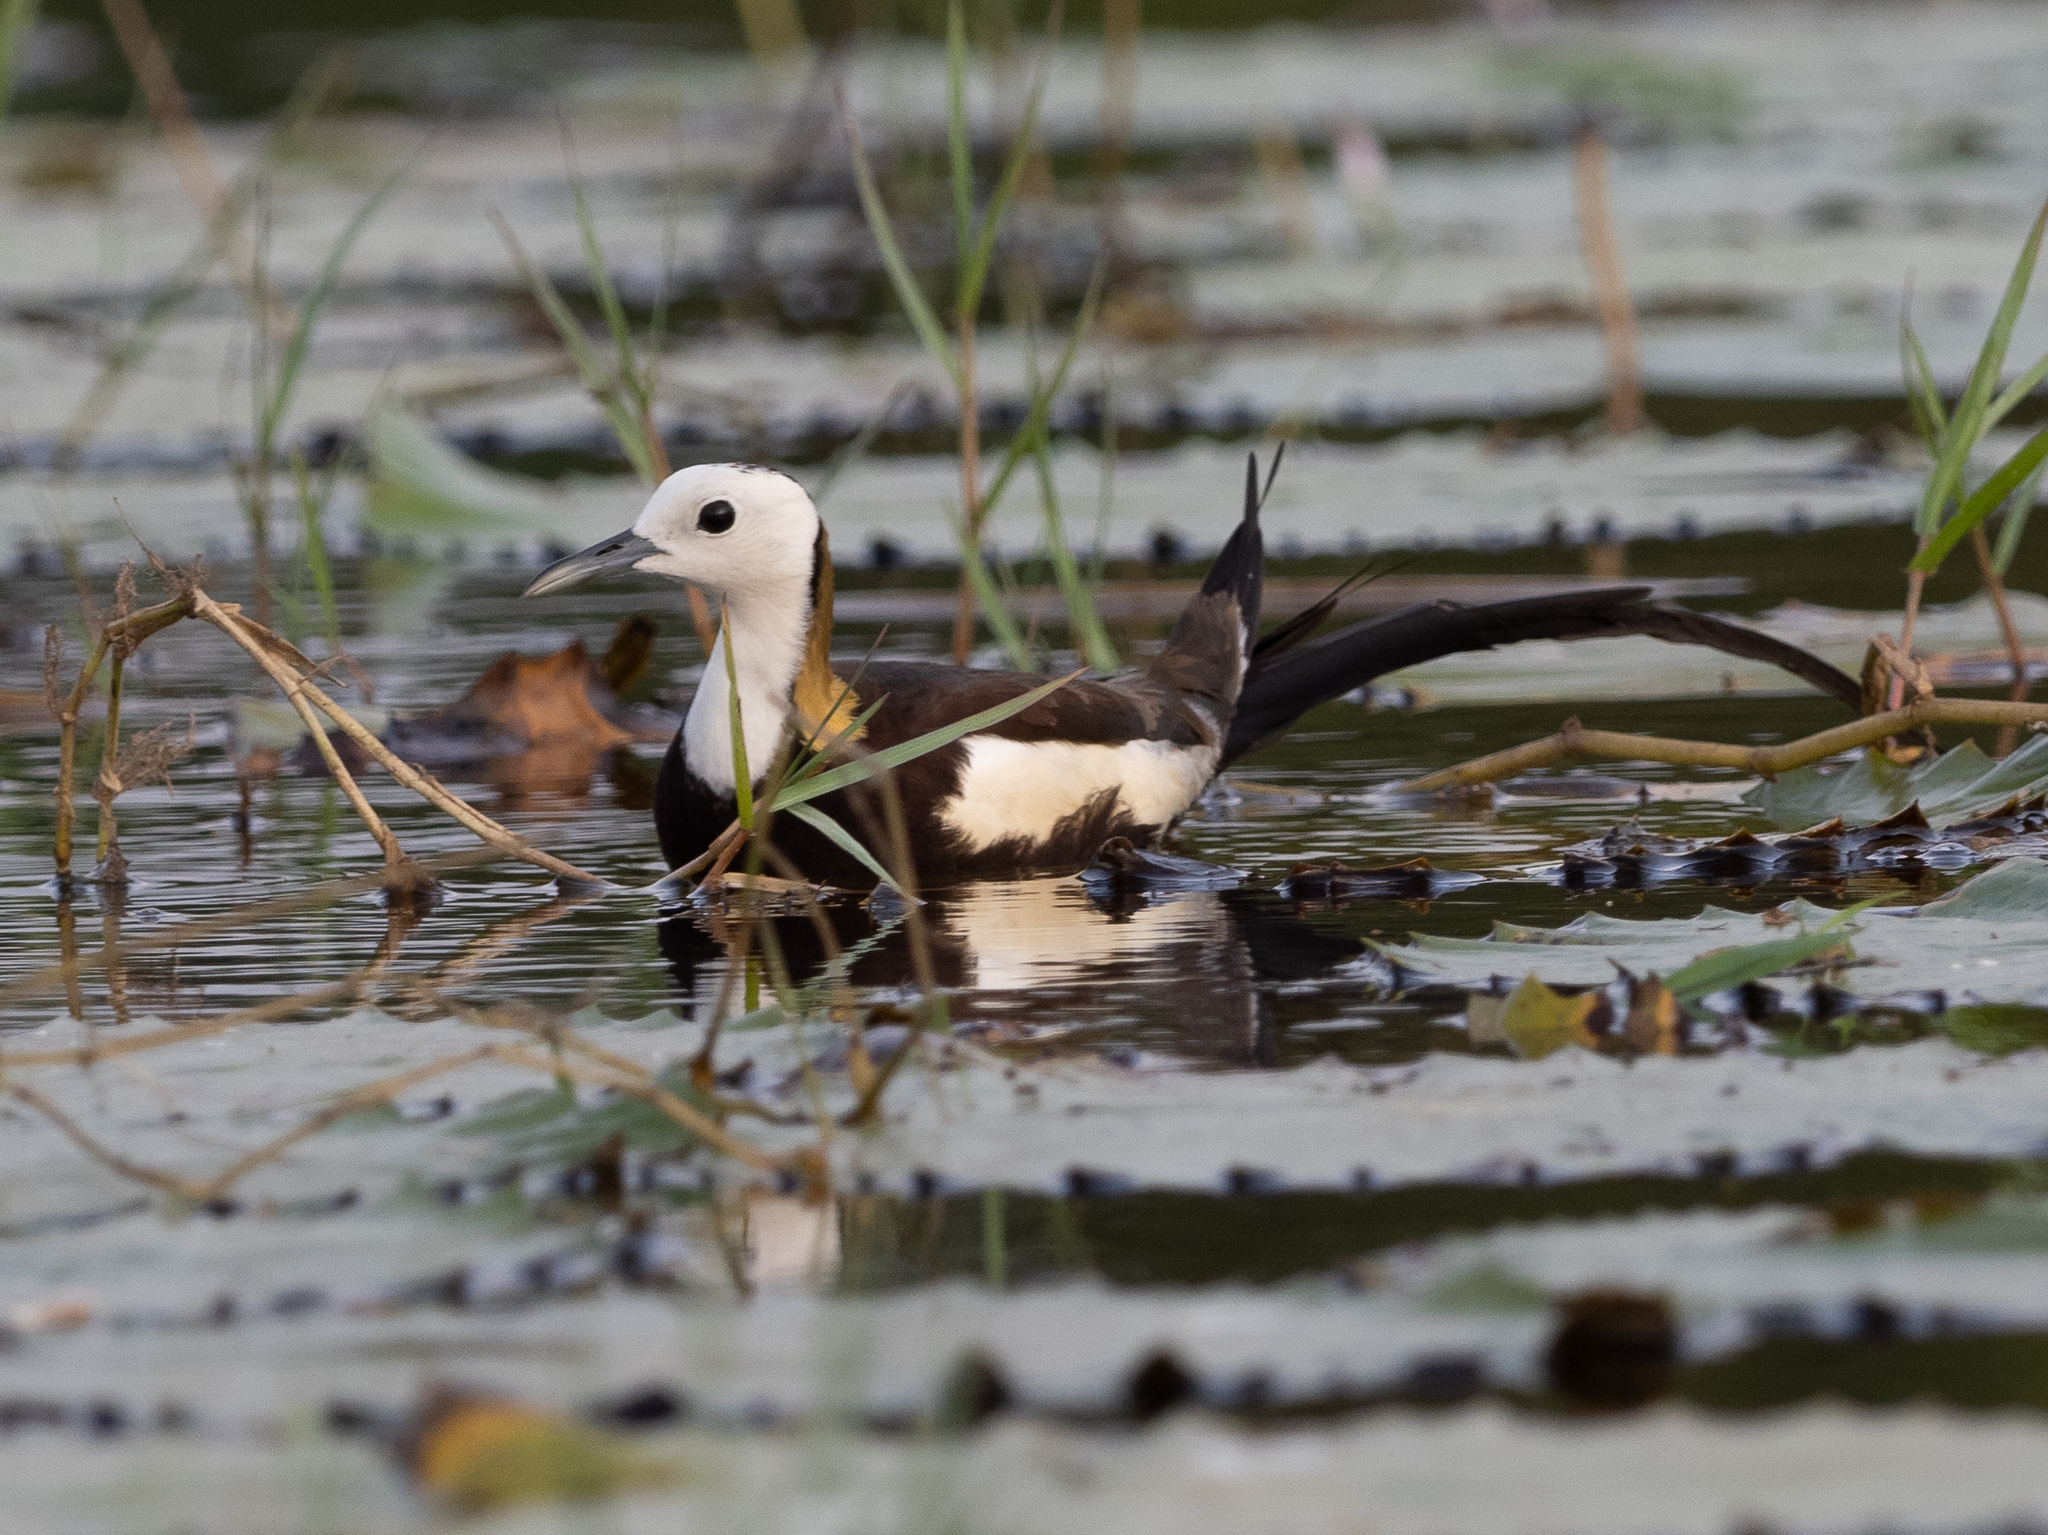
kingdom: Animalia
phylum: Chordata
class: Aves
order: Charadriiformes
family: Jacanidae
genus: Hydrophasianus
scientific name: Hydrophasianus chirurgus
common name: Pheasant-tailed jacana
